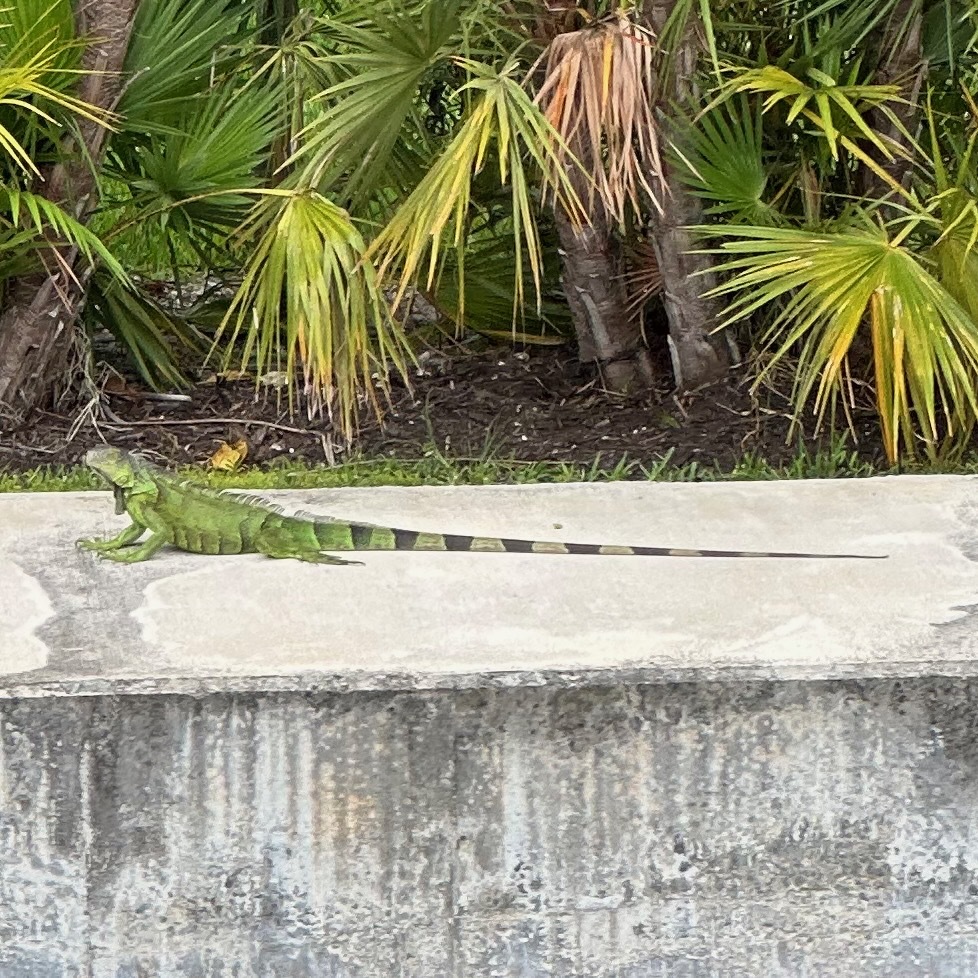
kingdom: Animalia
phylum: Chordata
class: Squamata
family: Iguanidae
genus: Iguana
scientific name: Iguana iguana
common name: Green iguana
